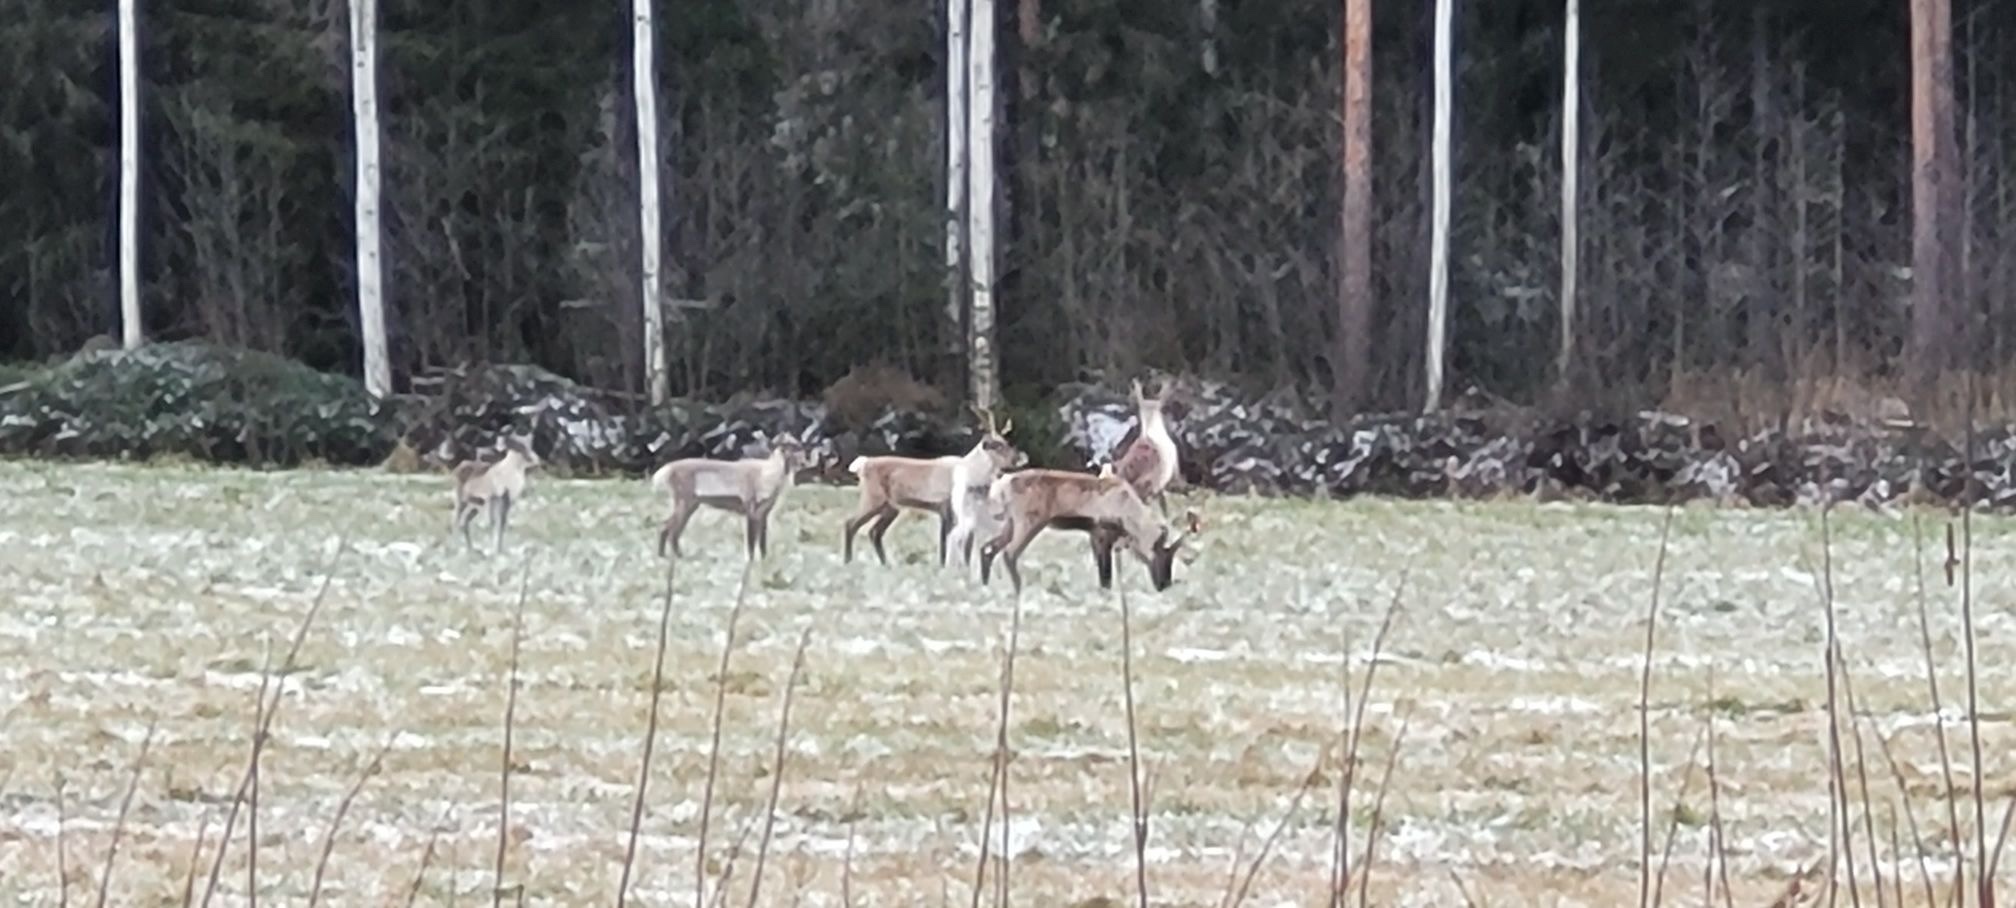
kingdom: Animalia
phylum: Chordata
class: Mammalia
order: Artiodactyla
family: Cervidae
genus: Rangifer
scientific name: Rangifer tarandus
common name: Reindeer
